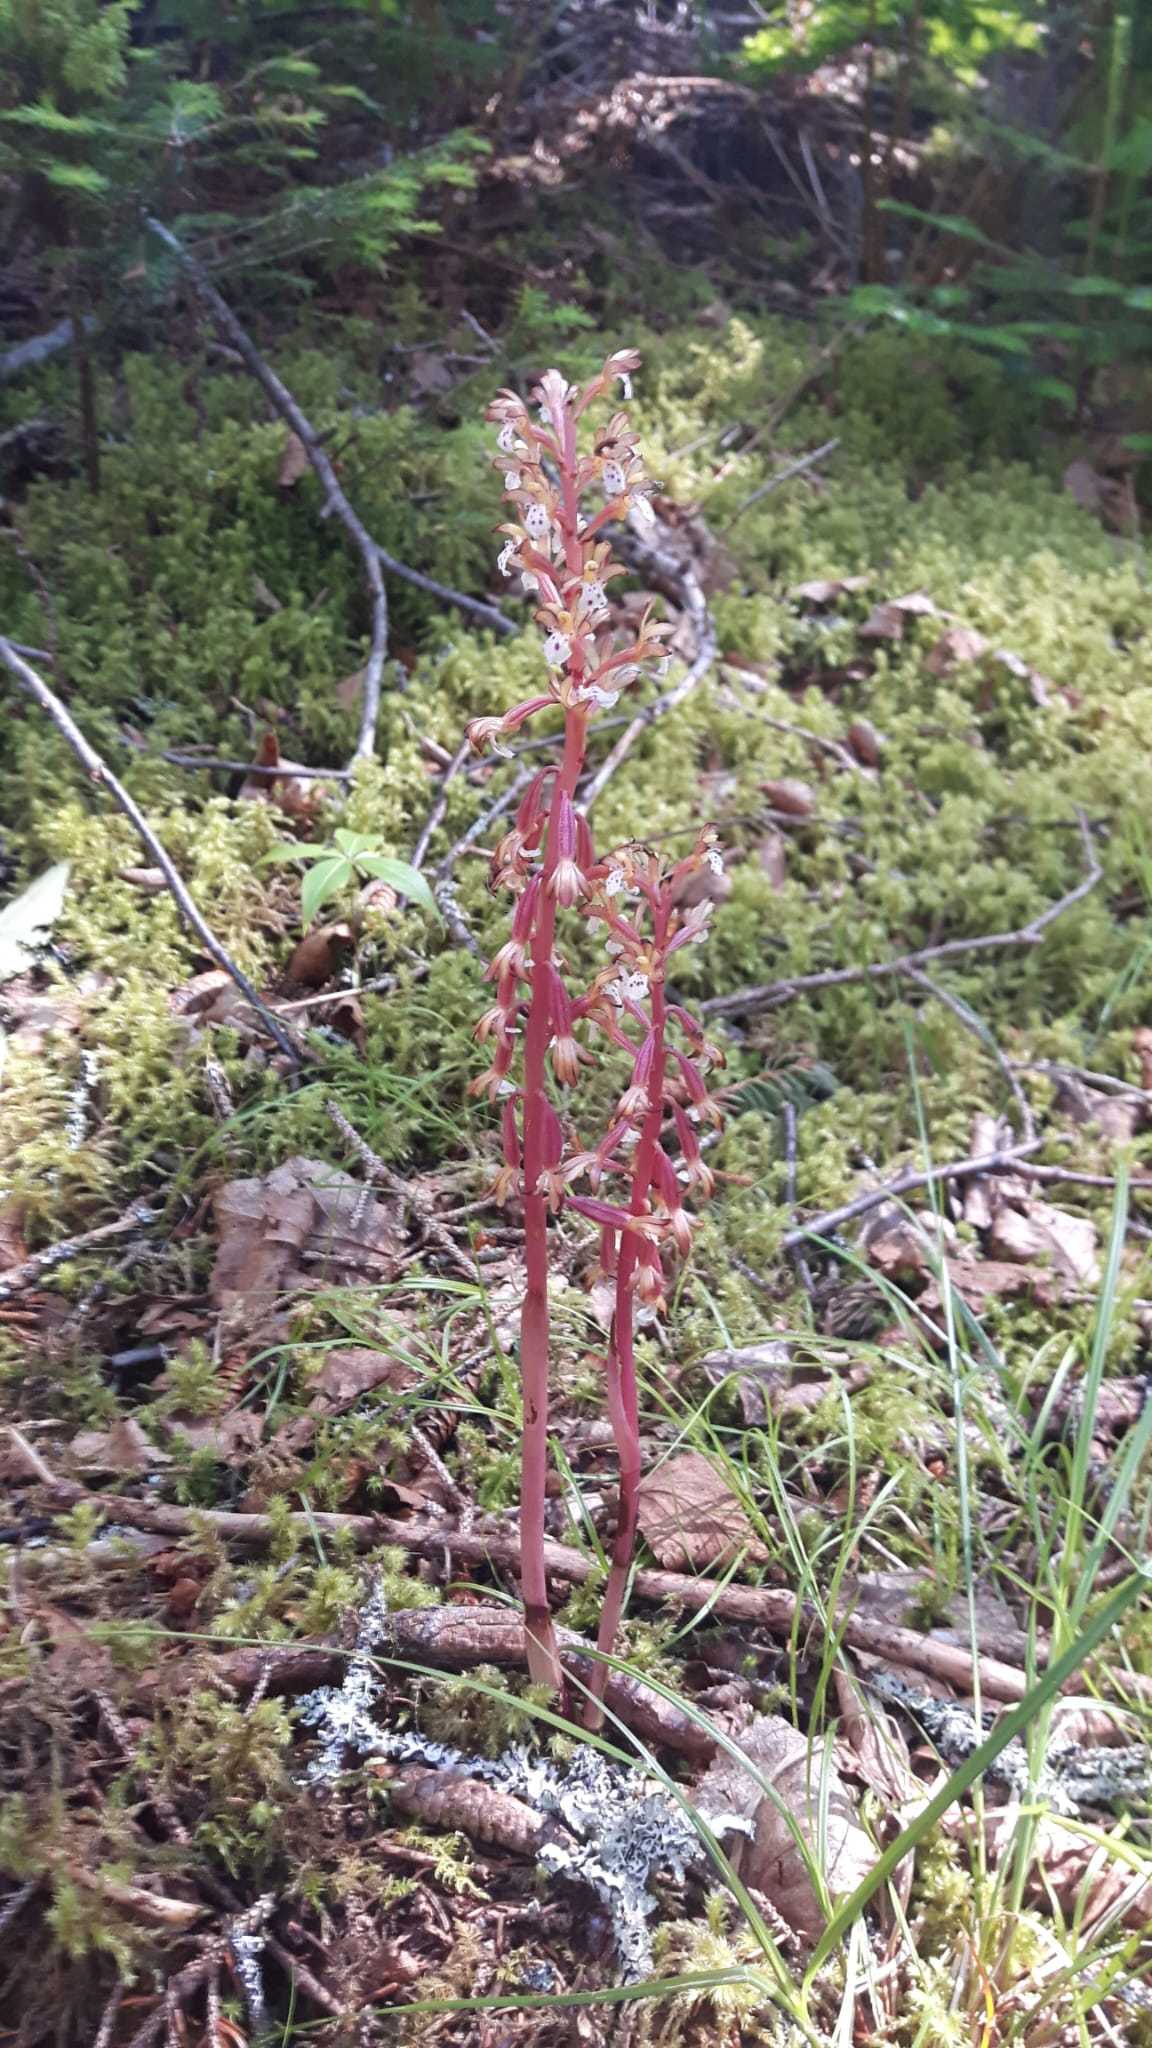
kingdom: Plantae
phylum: Tracheophyta
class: Liliopsida
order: Asparagales
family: Orchidaceae
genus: Corallorhiza
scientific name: Corallorhiza maculata
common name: Spotted coralroot
